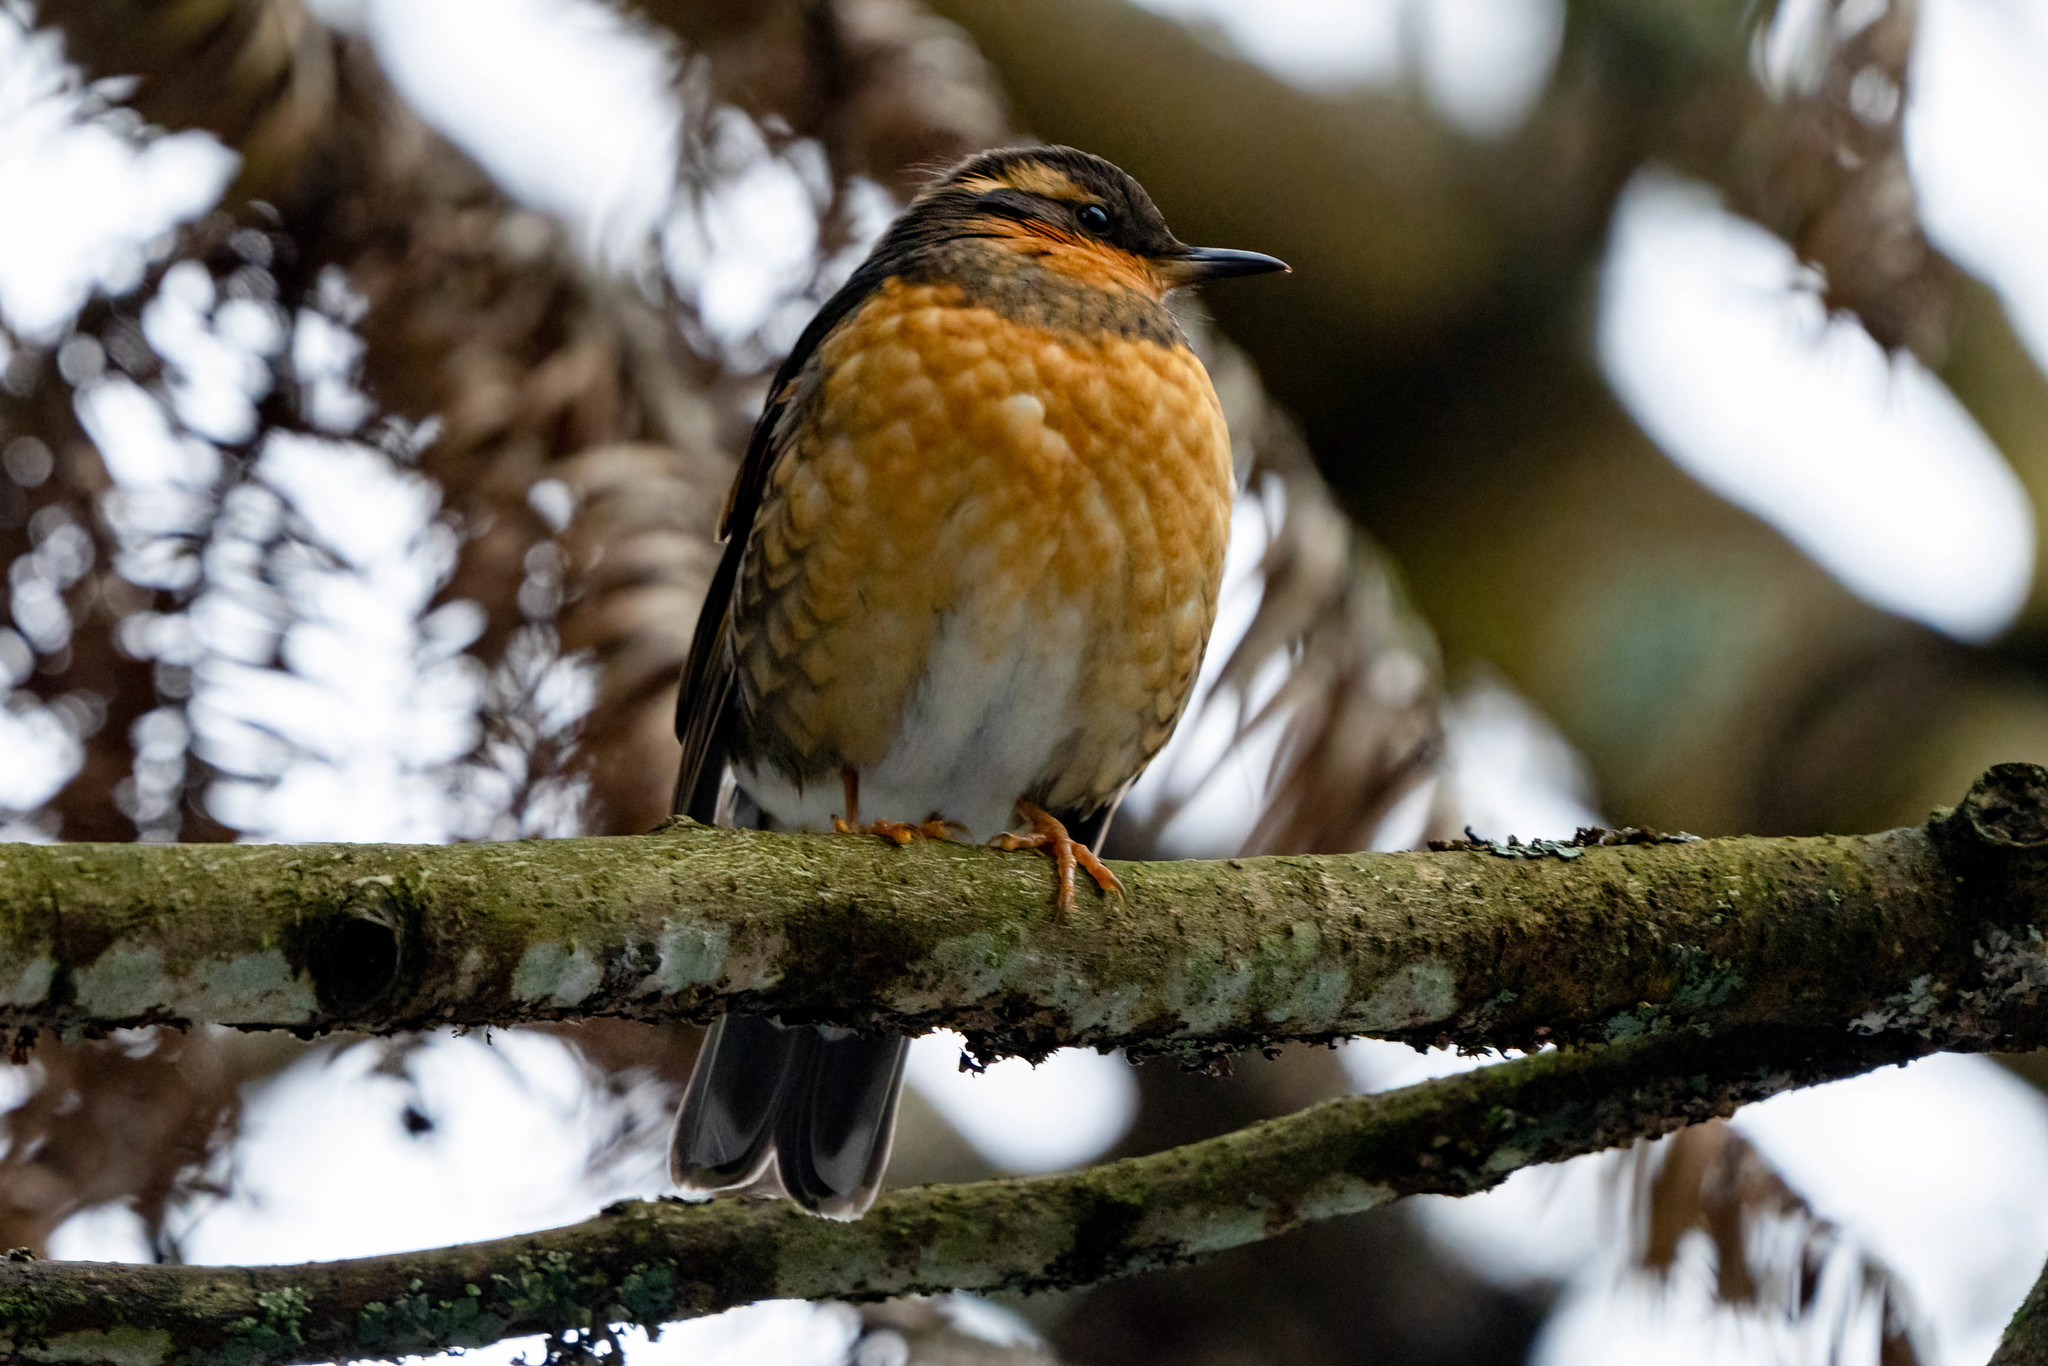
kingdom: Animalia
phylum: Chordata
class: Aves
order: Passeriformes
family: Turdidae
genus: Ixoreus
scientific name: Ixoreus naevius
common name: Varied thrush
